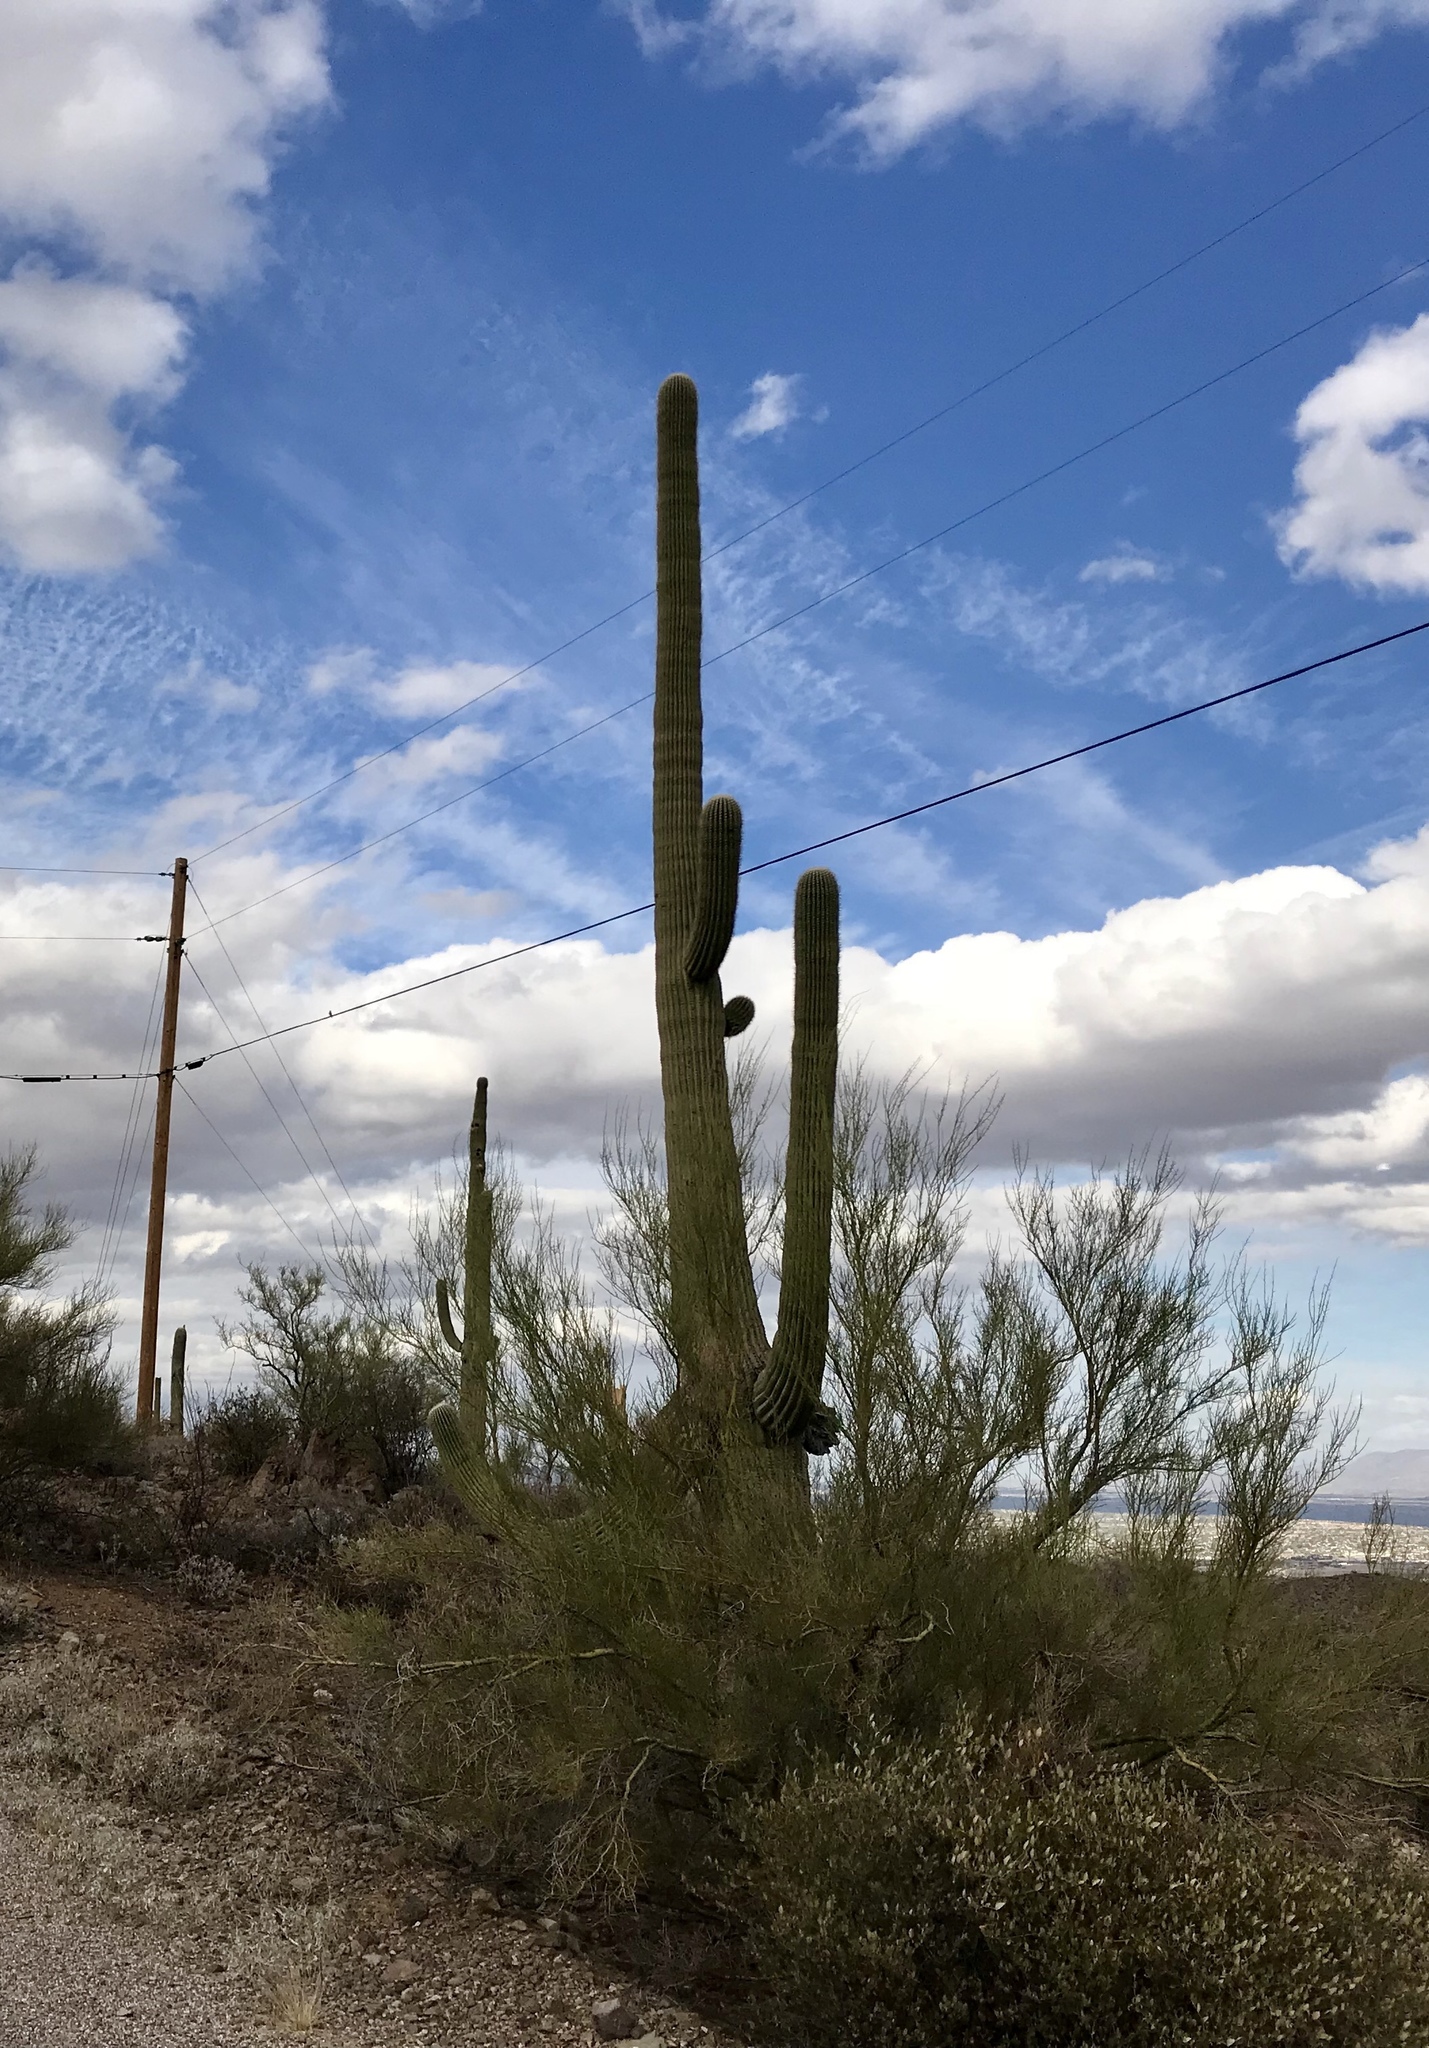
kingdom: Plantae
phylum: Tracheophyta
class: Magnoliopsida
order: Caryophyllales
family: Cactaceae
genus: Carnegiea
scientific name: Carnegiea gigantea
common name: Saguaro
